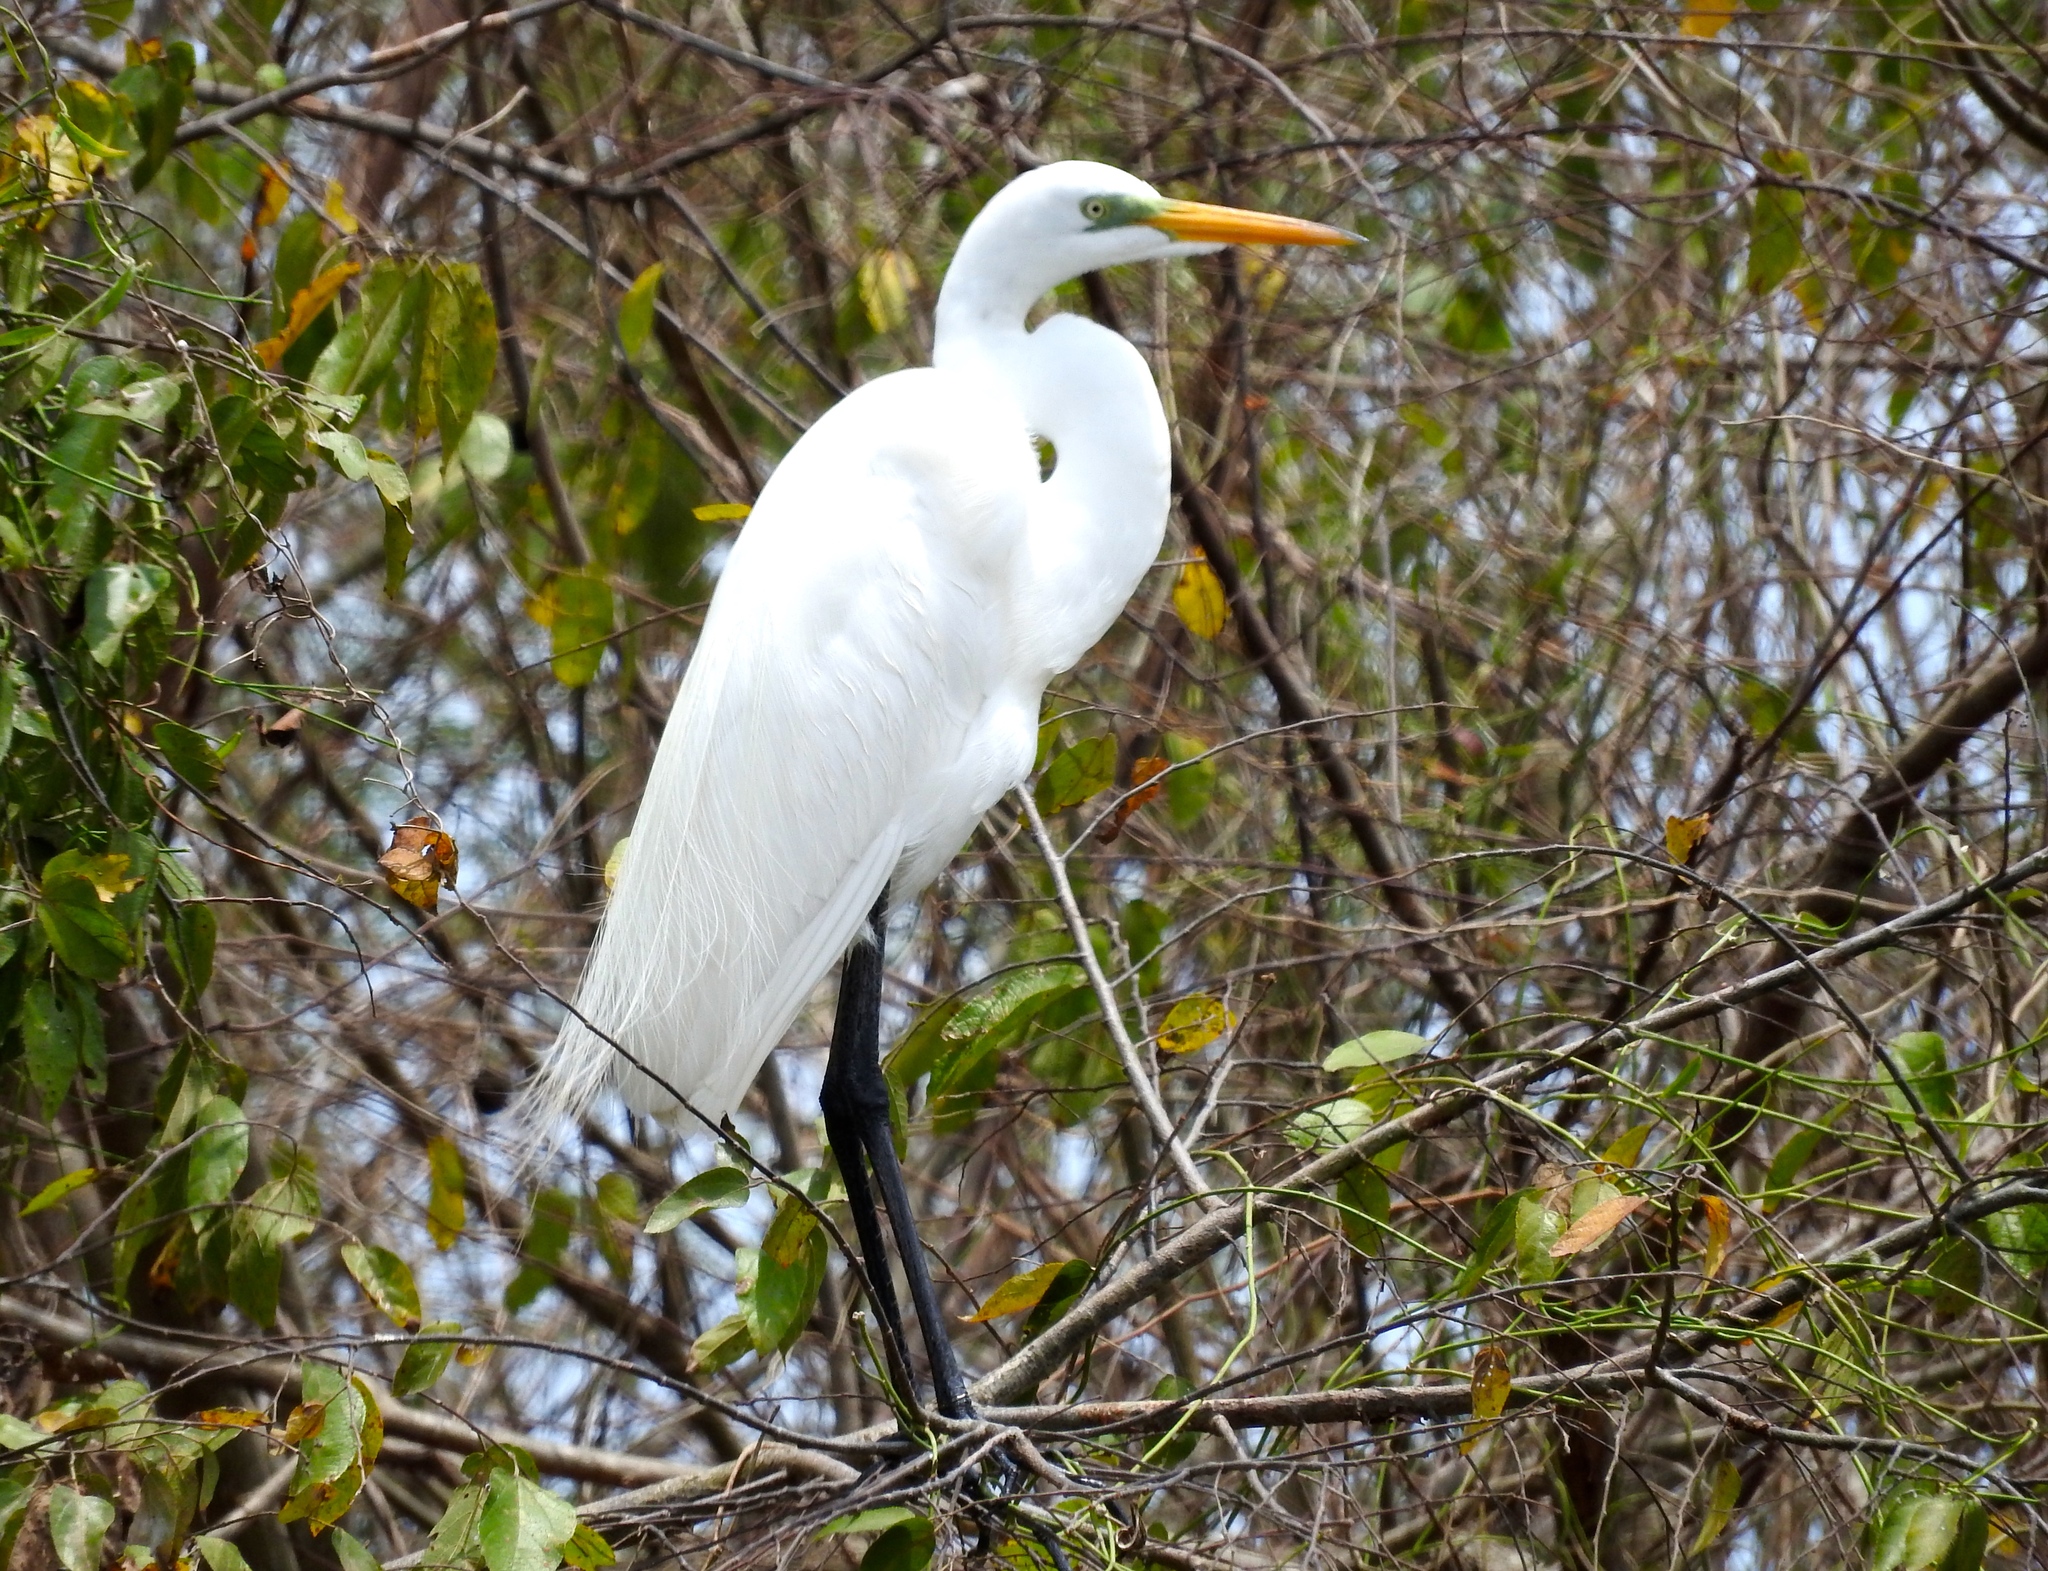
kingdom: Animalia
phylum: Chordata
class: Aves
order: Pelecaniformes
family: Ardeidae
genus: Ardea
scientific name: Ardea alba
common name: Great egret
